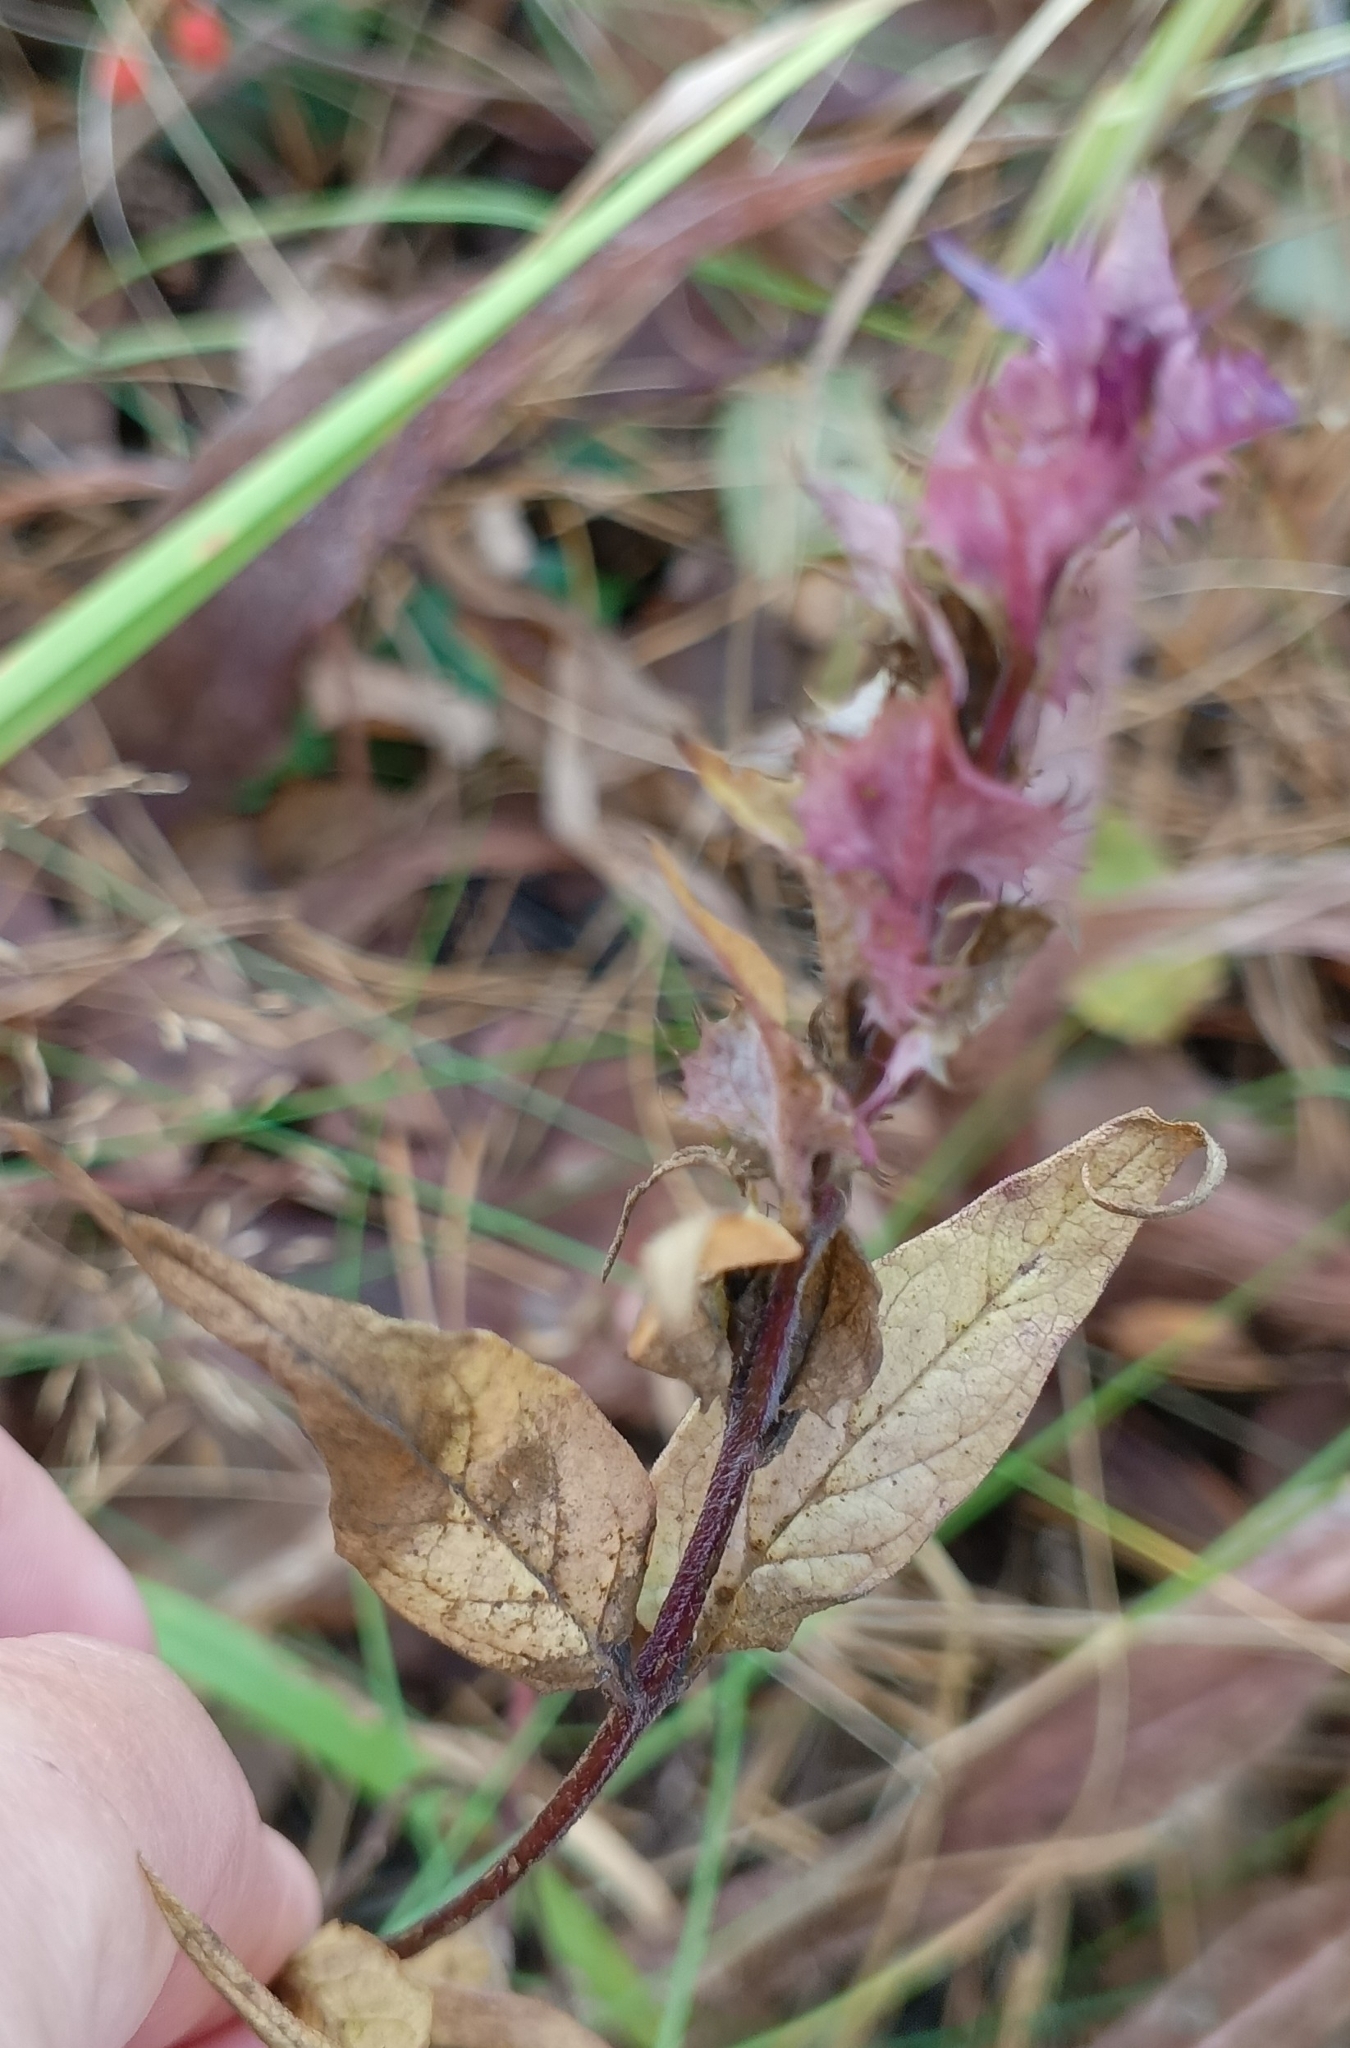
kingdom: Plantae
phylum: Tracheophyta
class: Magnoliopsida
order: Lamiales
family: Orobanchaceae
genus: Melampyrum
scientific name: Melampyrum nemorosum
